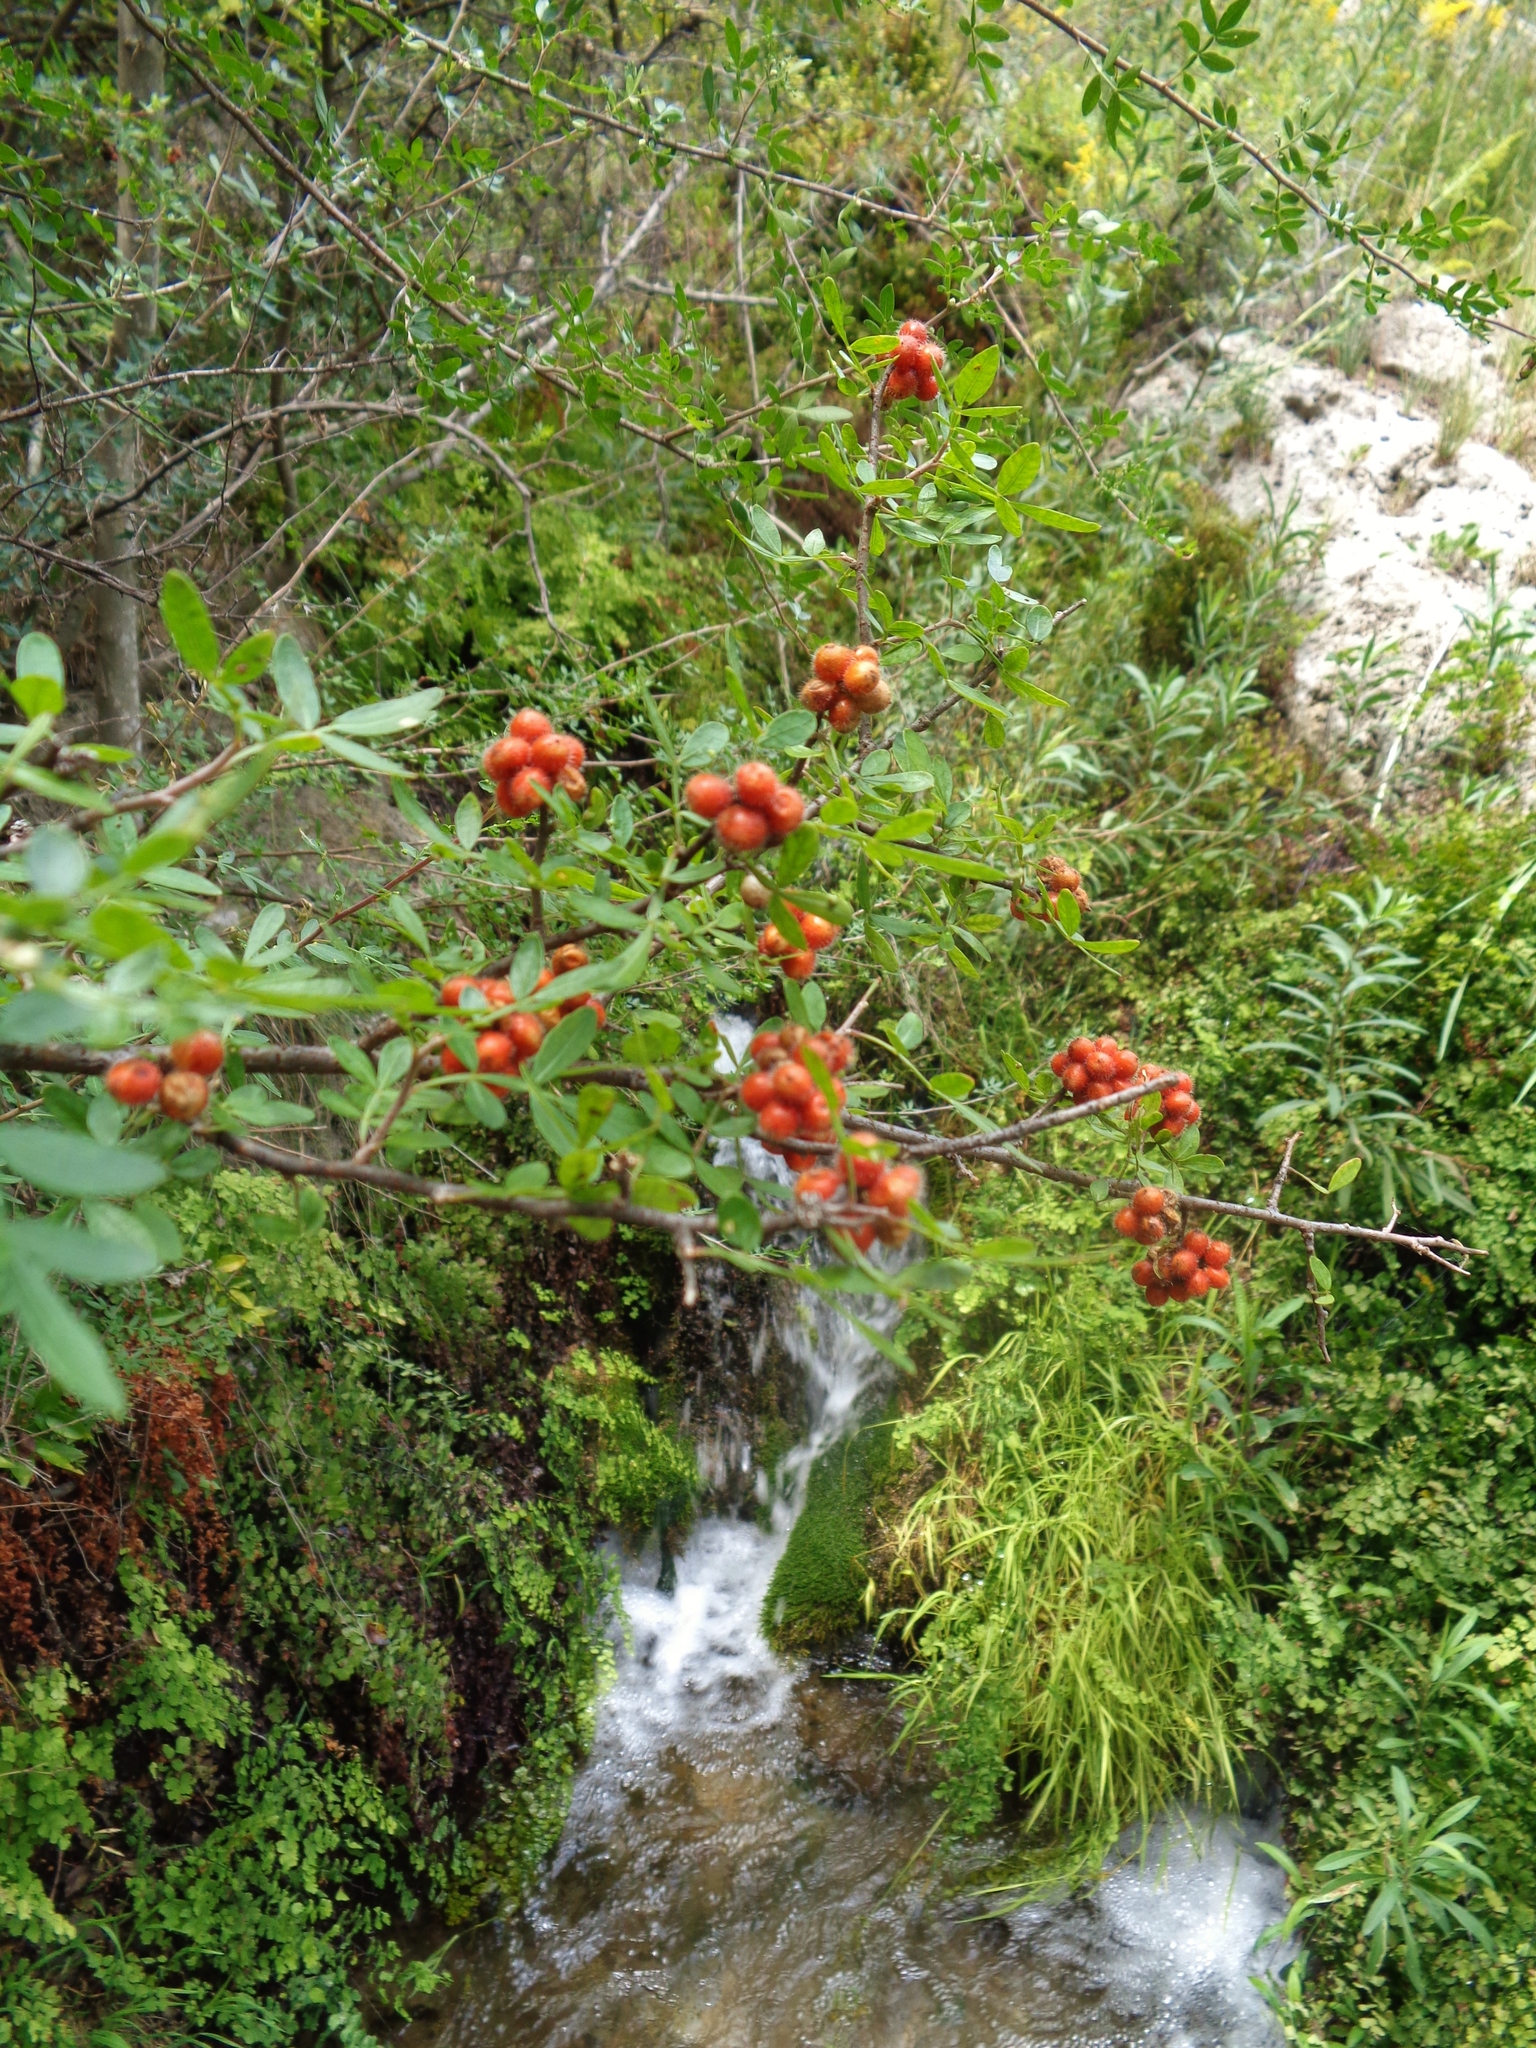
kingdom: Plantae
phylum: Tracheophyta
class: Magnoliopsida
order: Sapindales
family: Anacardiaceae
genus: Rhus
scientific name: Rhus microphylla
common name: Desert sumac
